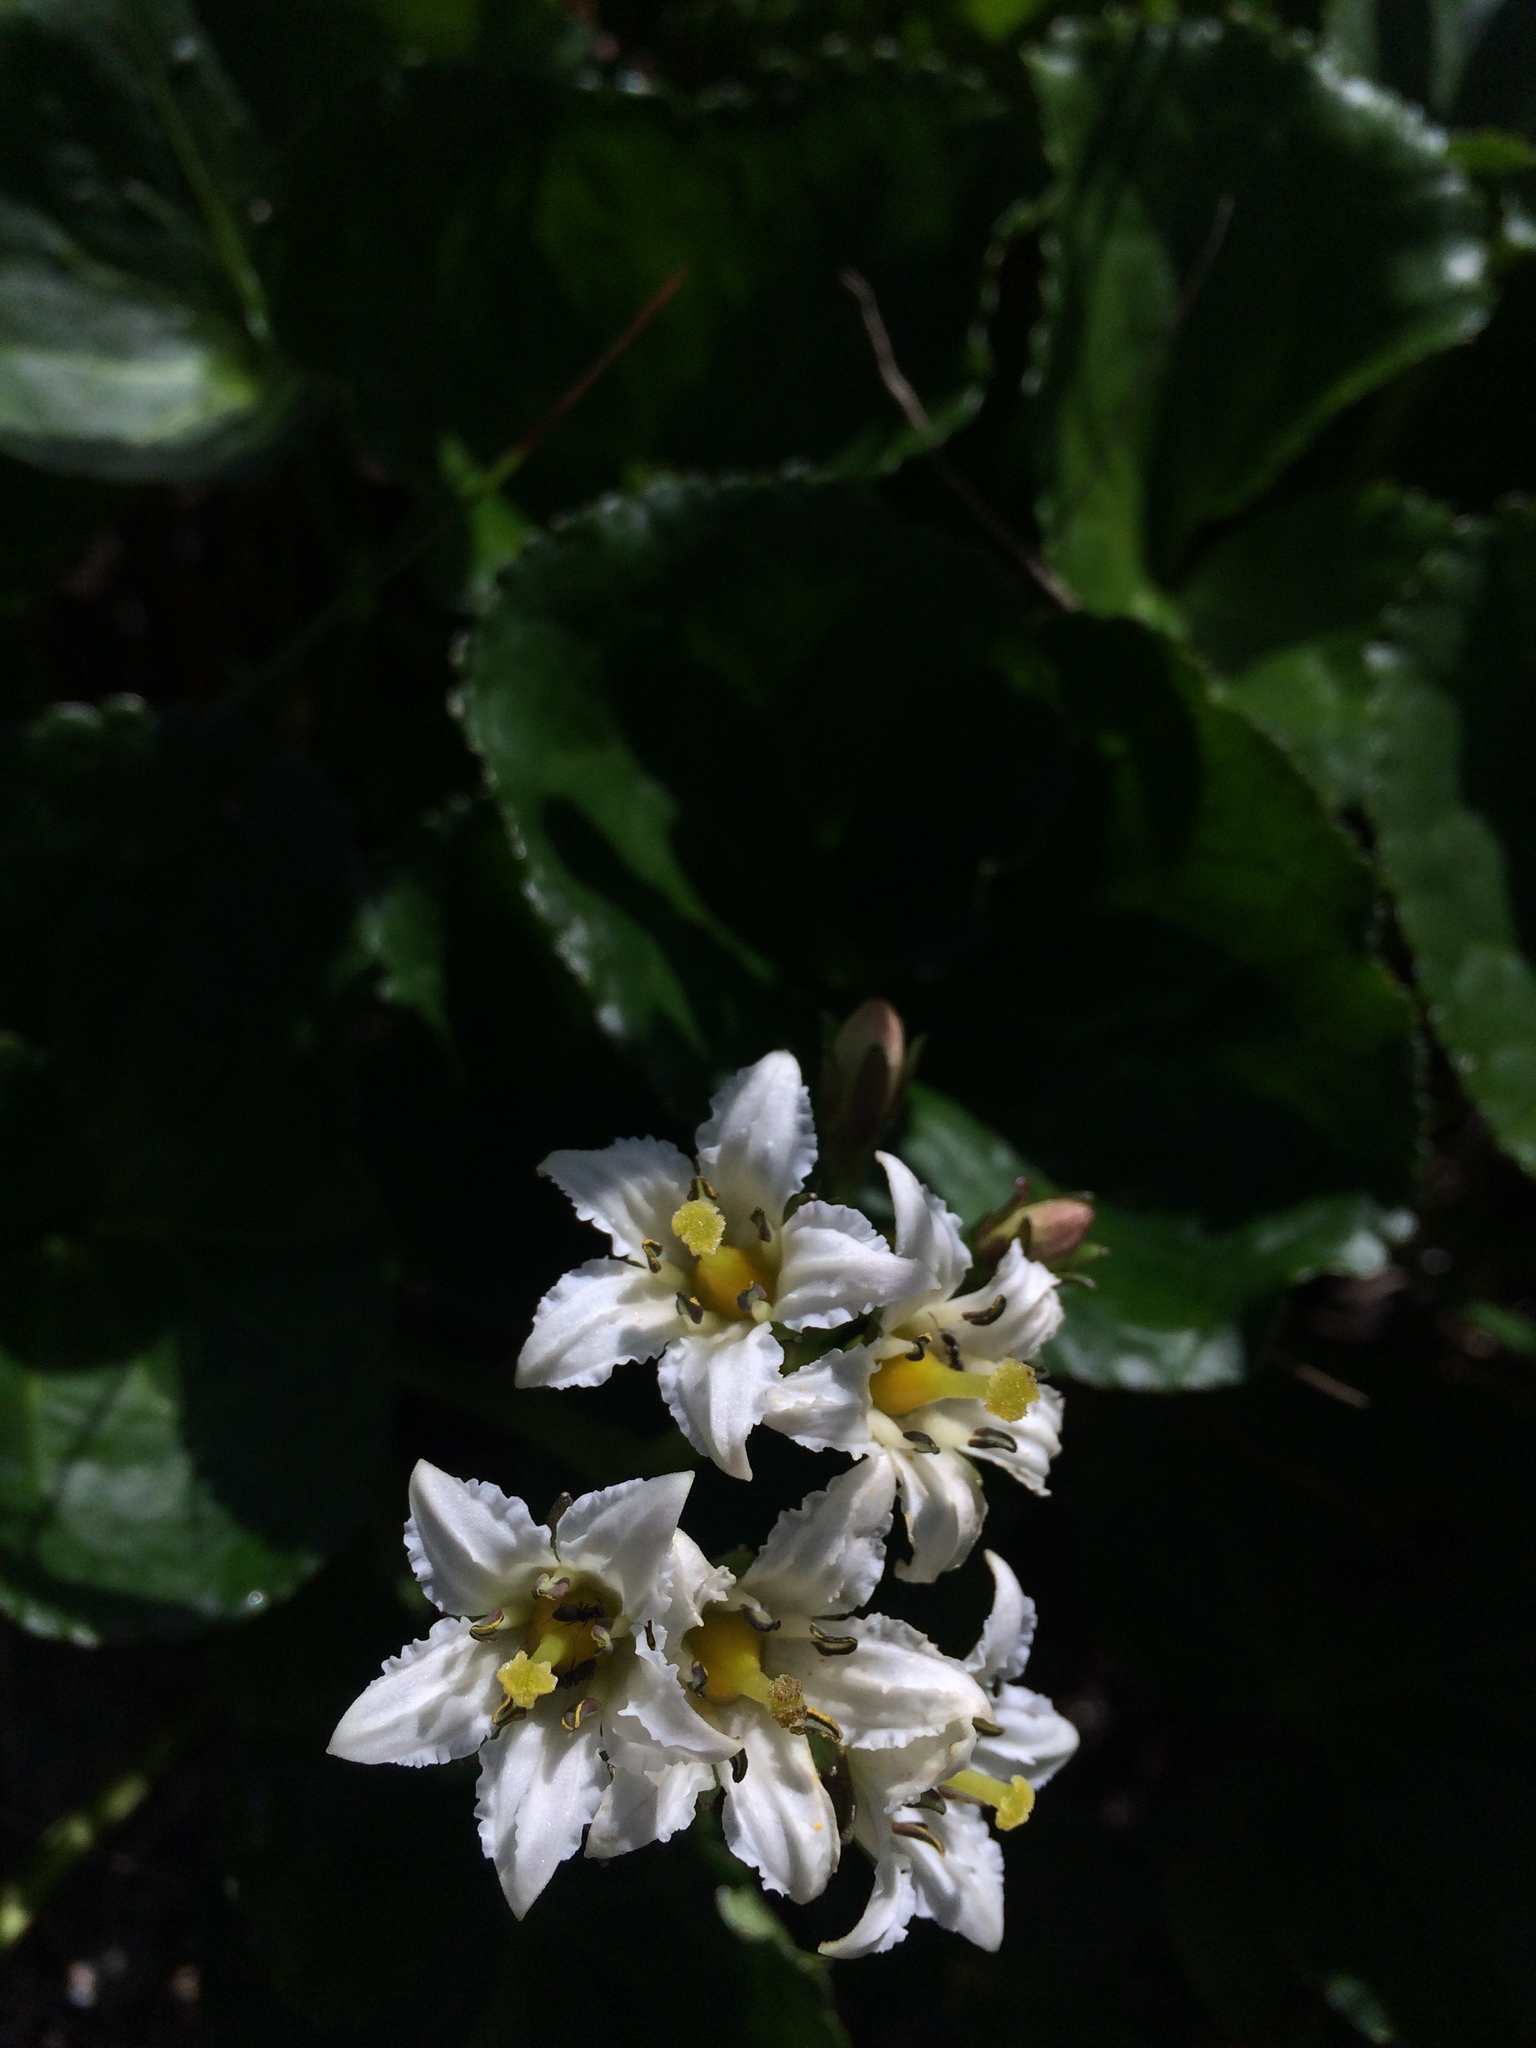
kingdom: Plantae
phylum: Tracheophyta
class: Magnoliopsida
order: Asterales
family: Menyanthaceae
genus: Nephrophyllidium
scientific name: Nephrophyllidium crista-galli
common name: Deer-cabbage
